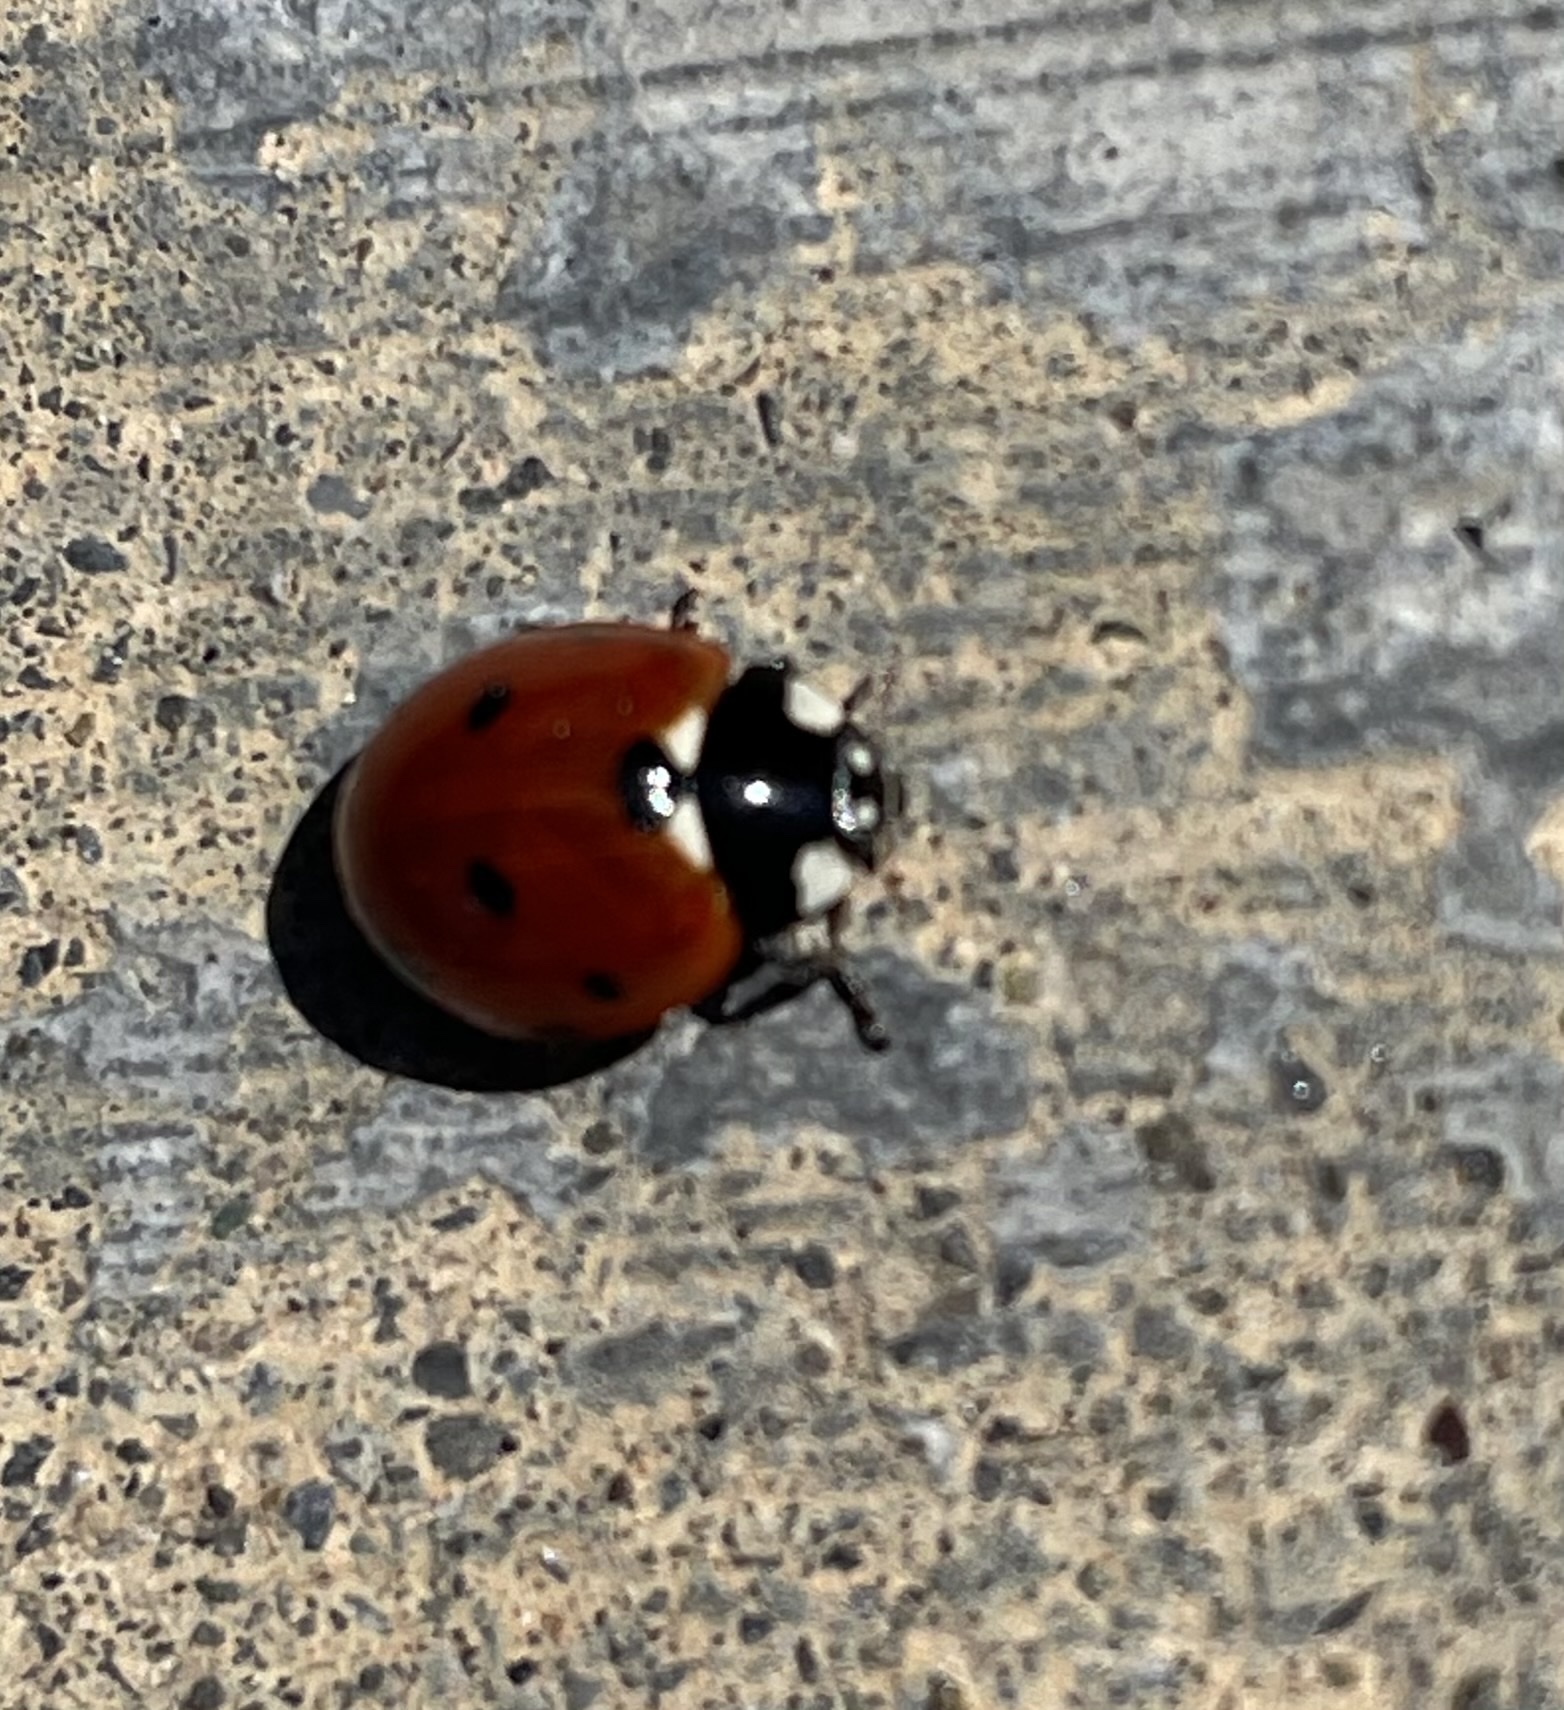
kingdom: Animalia
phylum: Arthropoda
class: Insecta
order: Coleoptera
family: Coccinellidae
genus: Coccinella
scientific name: Coccinella septempunctata
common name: Sevenspotted lady beetle
